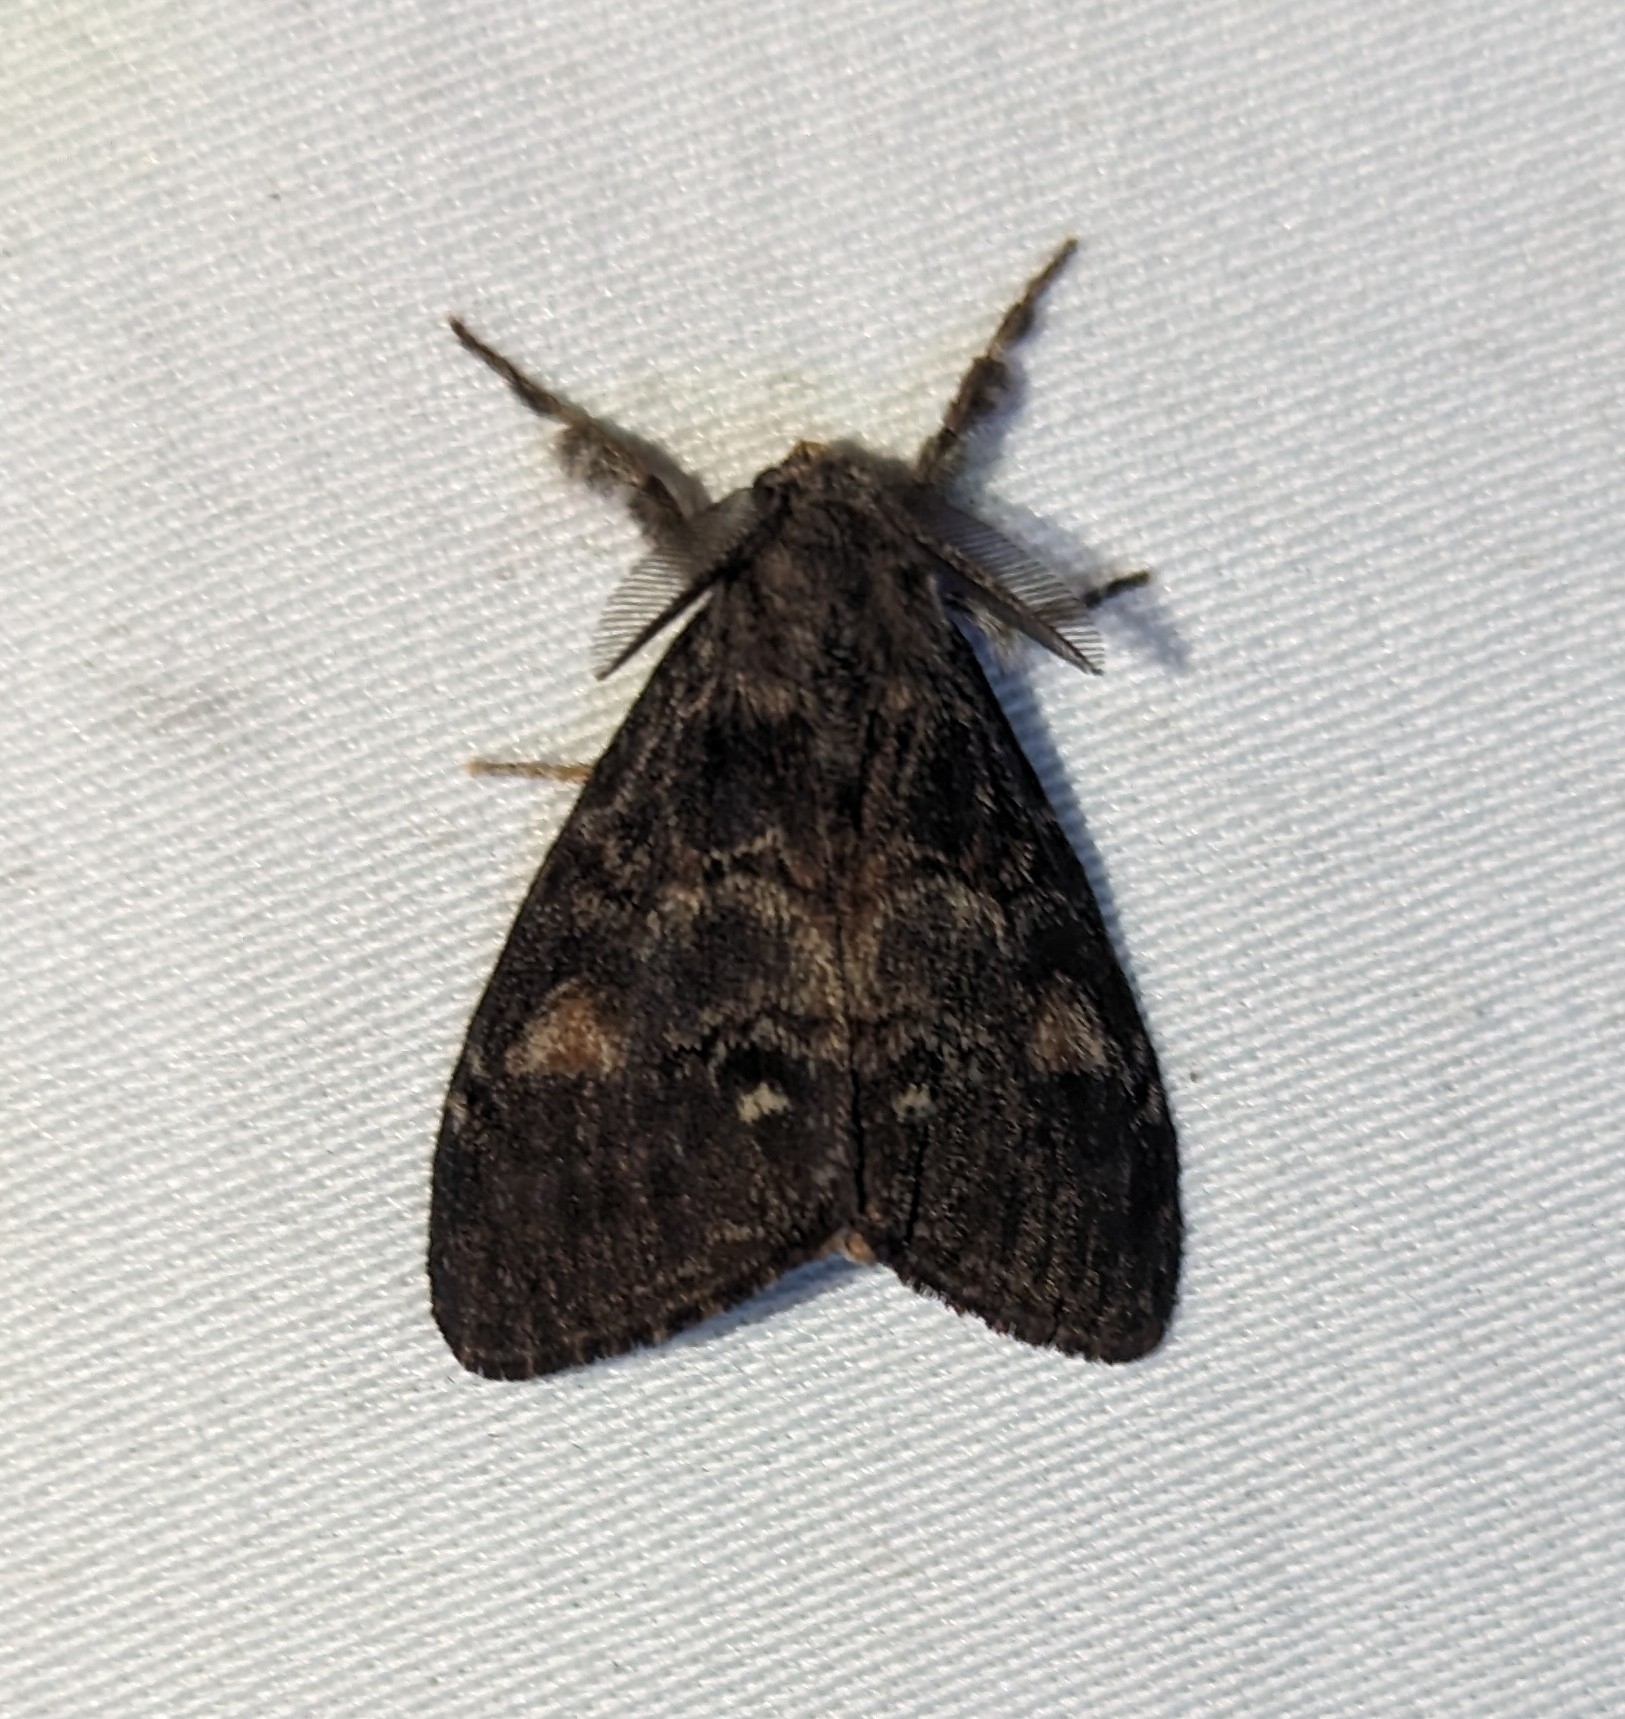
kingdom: Animalia
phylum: Arthropoda
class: Insecta
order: Lepidoptera
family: Erebidae
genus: Orgyia
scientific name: Orgyia pseudotsugata
